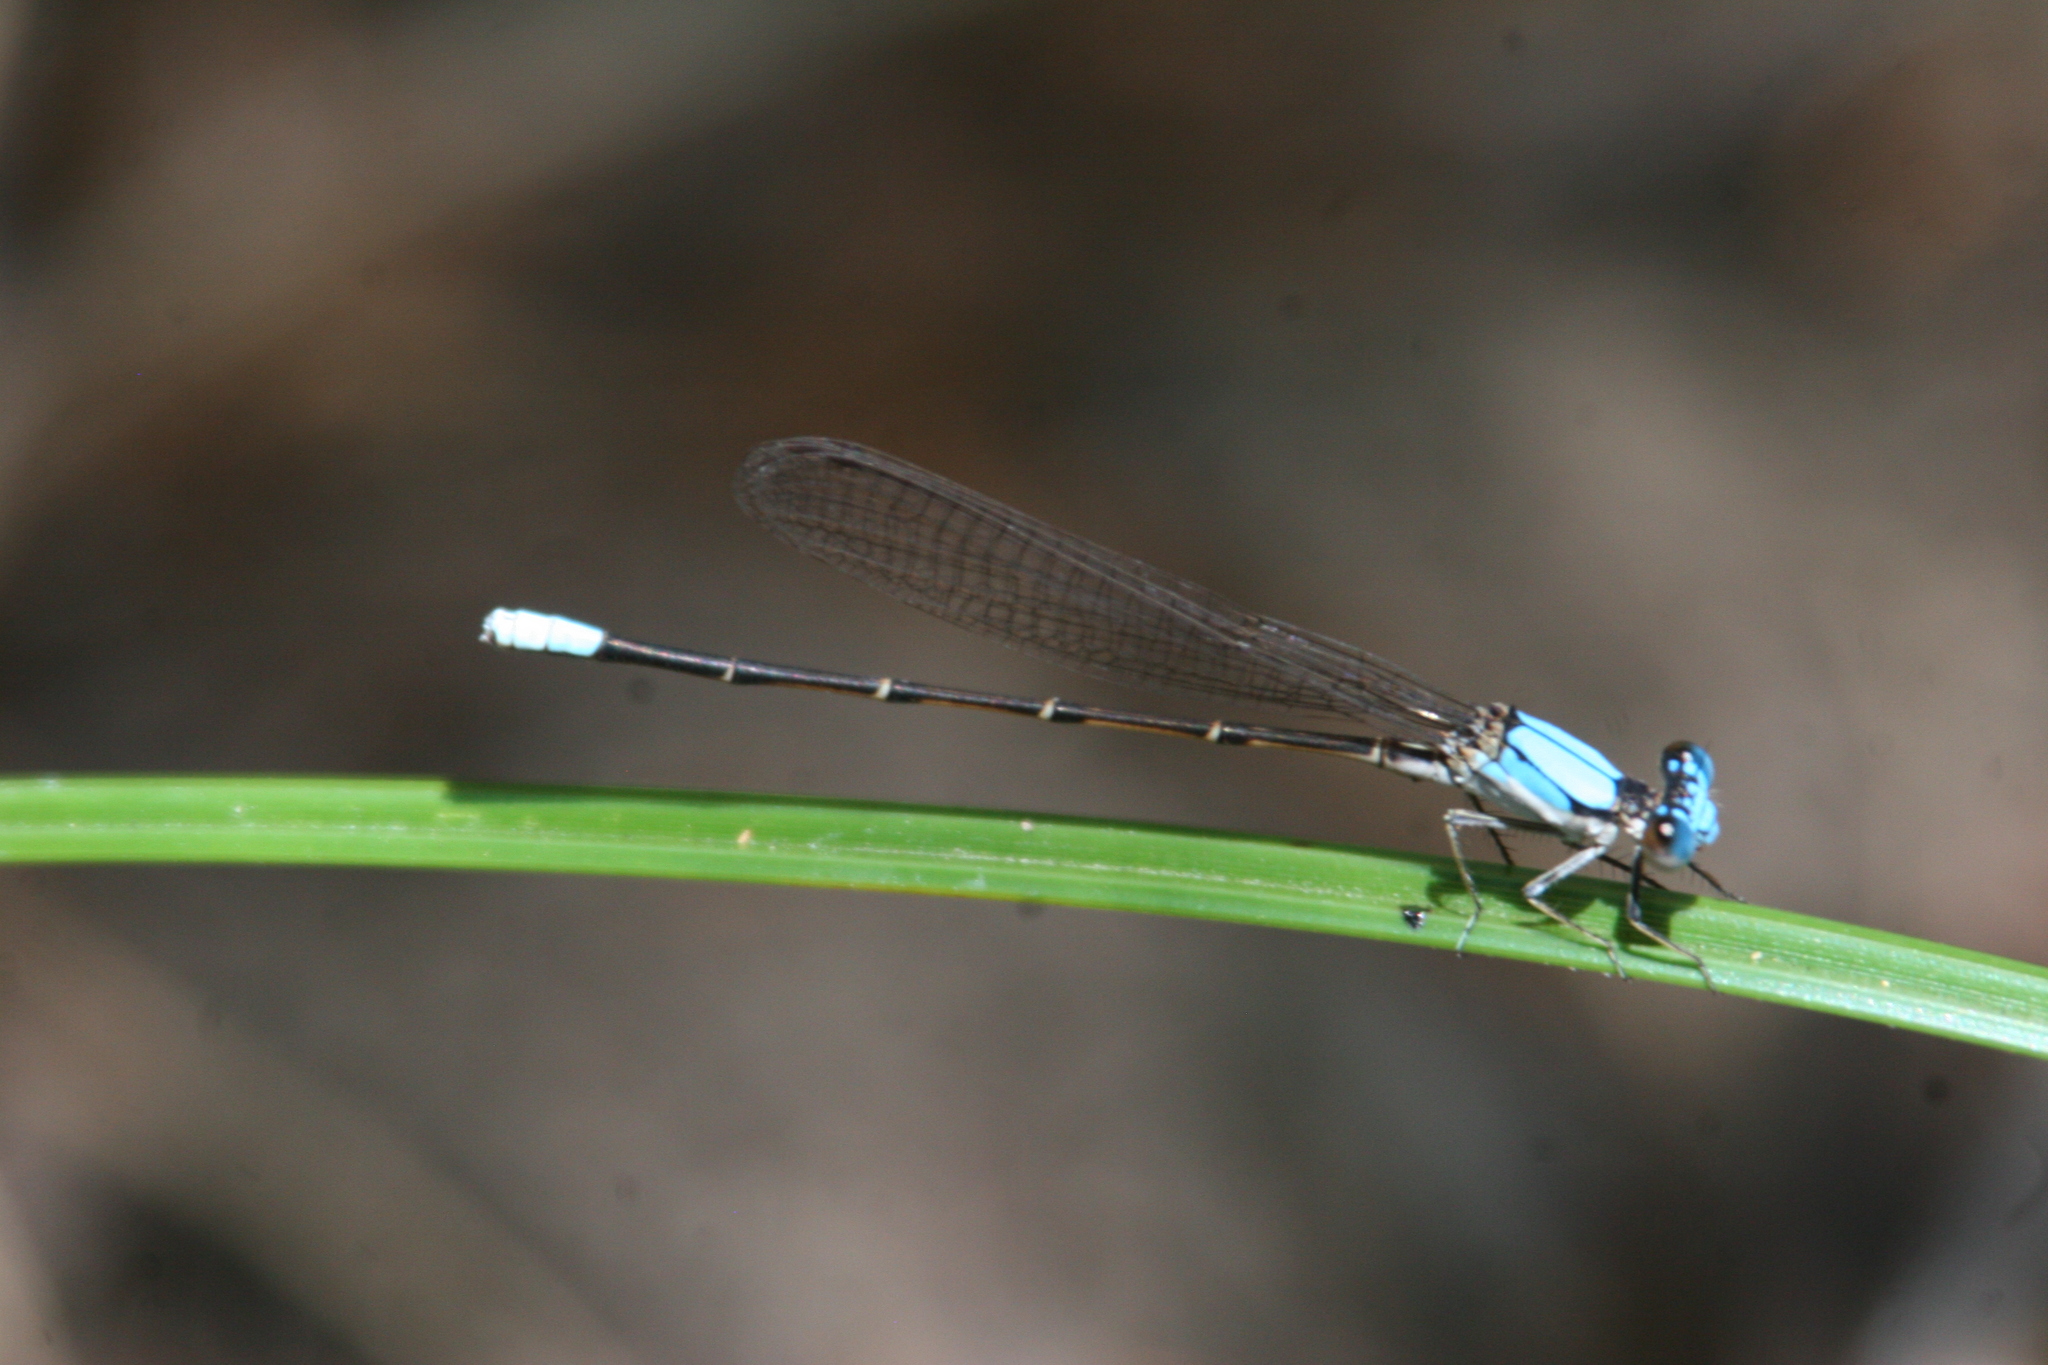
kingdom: Animalia
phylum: Arthropoda
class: Insecta
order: Odonata
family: Coenagrionidae
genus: Argia
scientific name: Argia apicalis
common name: Blue-fronted dancer
